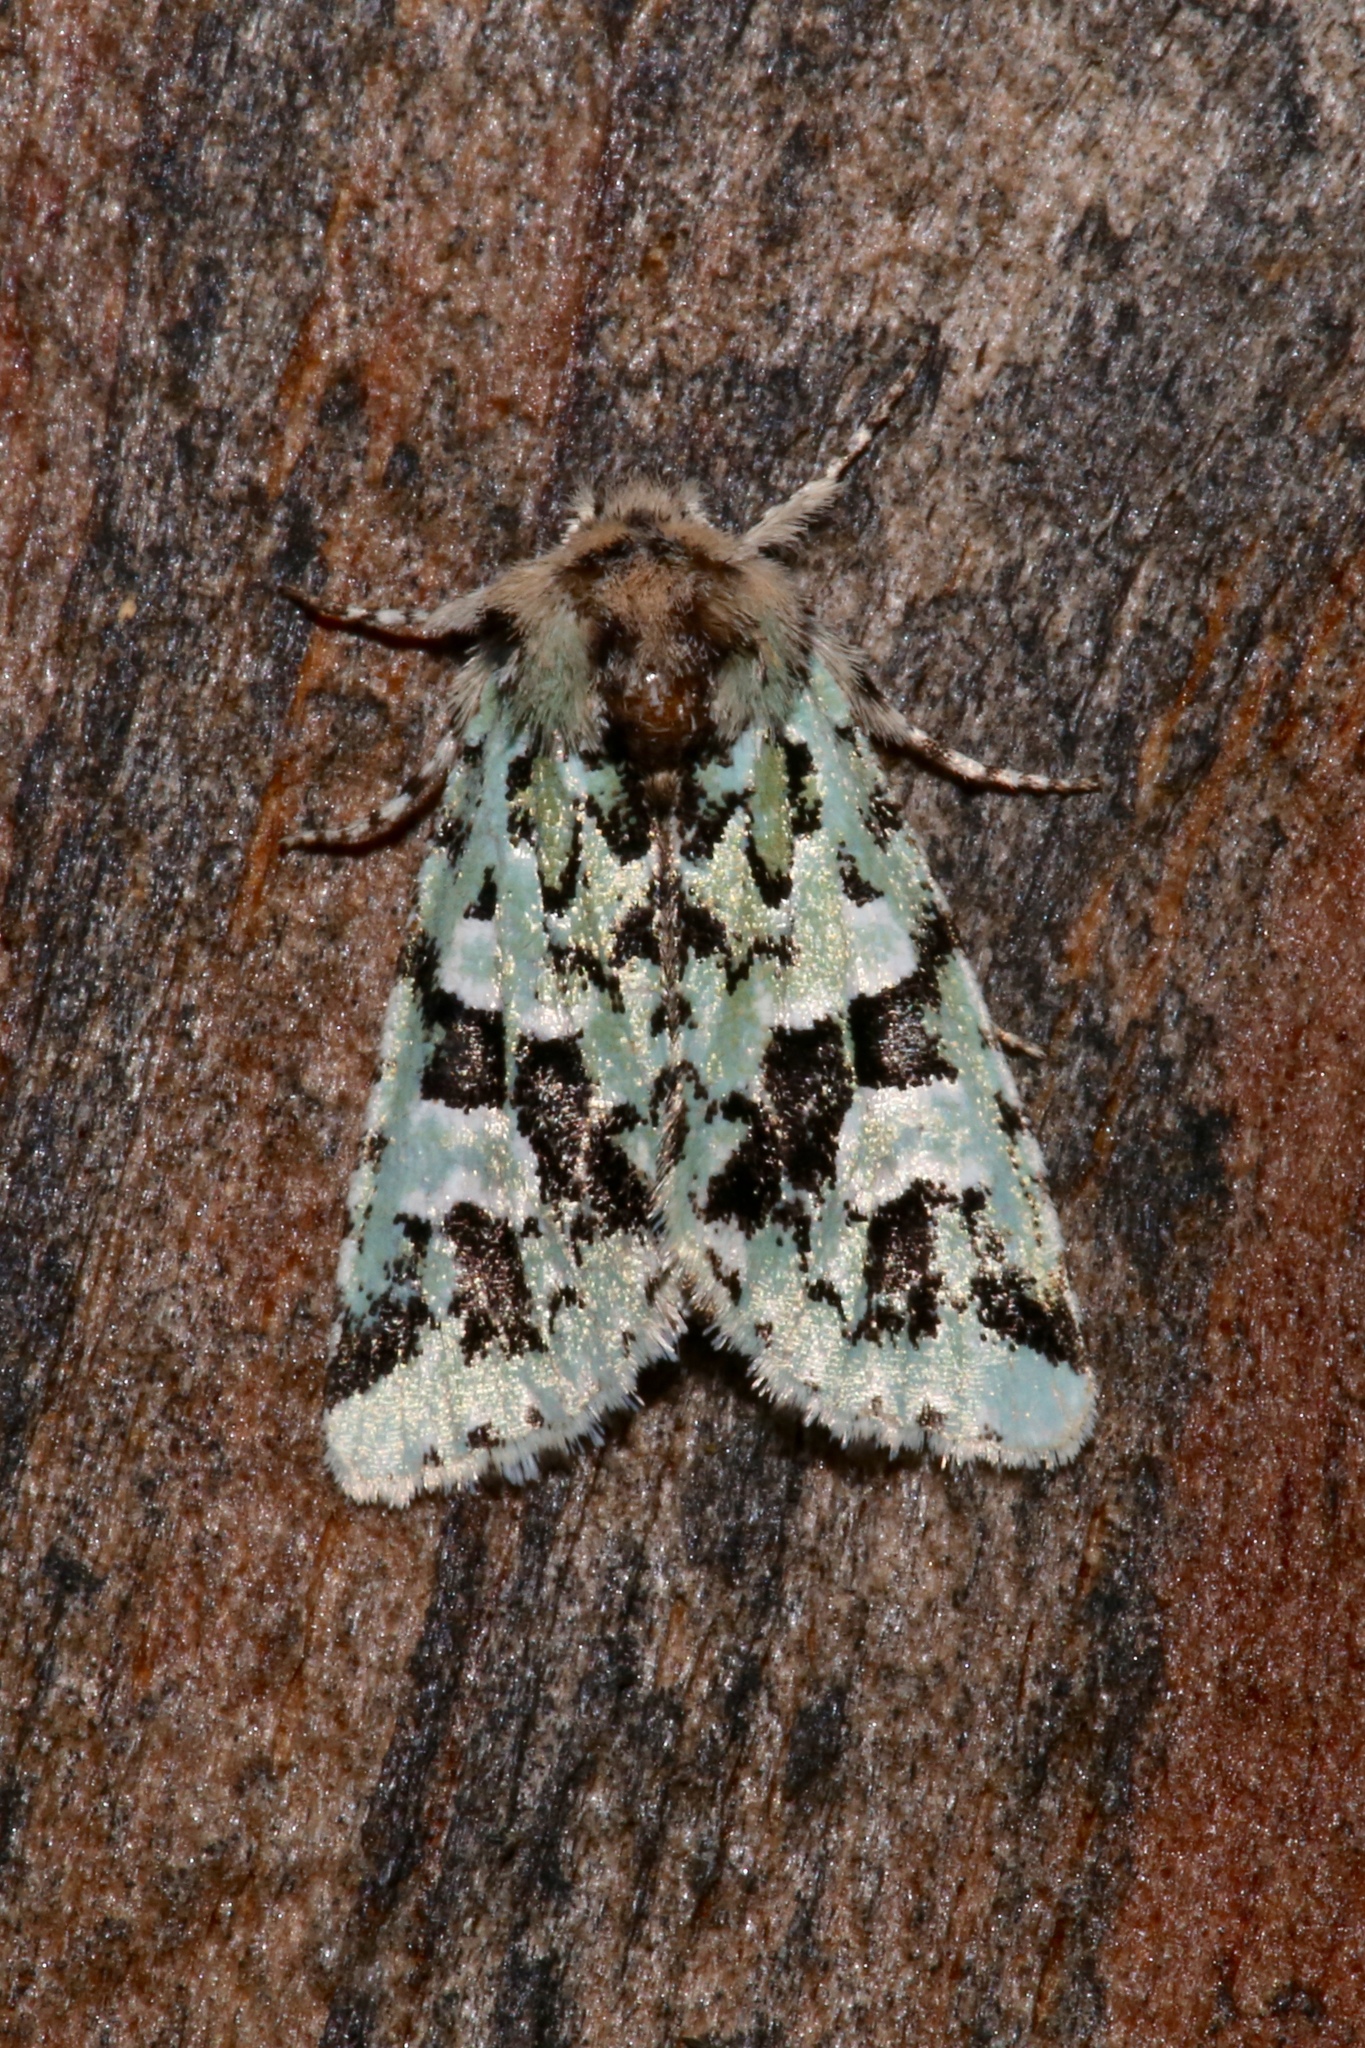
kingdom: Animalia
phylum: Arthropoda
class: Insecta
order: Lepidoptera
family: Noctuidae
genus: Feralia
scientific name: Feralia comstocki
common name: Comstock's sallow
